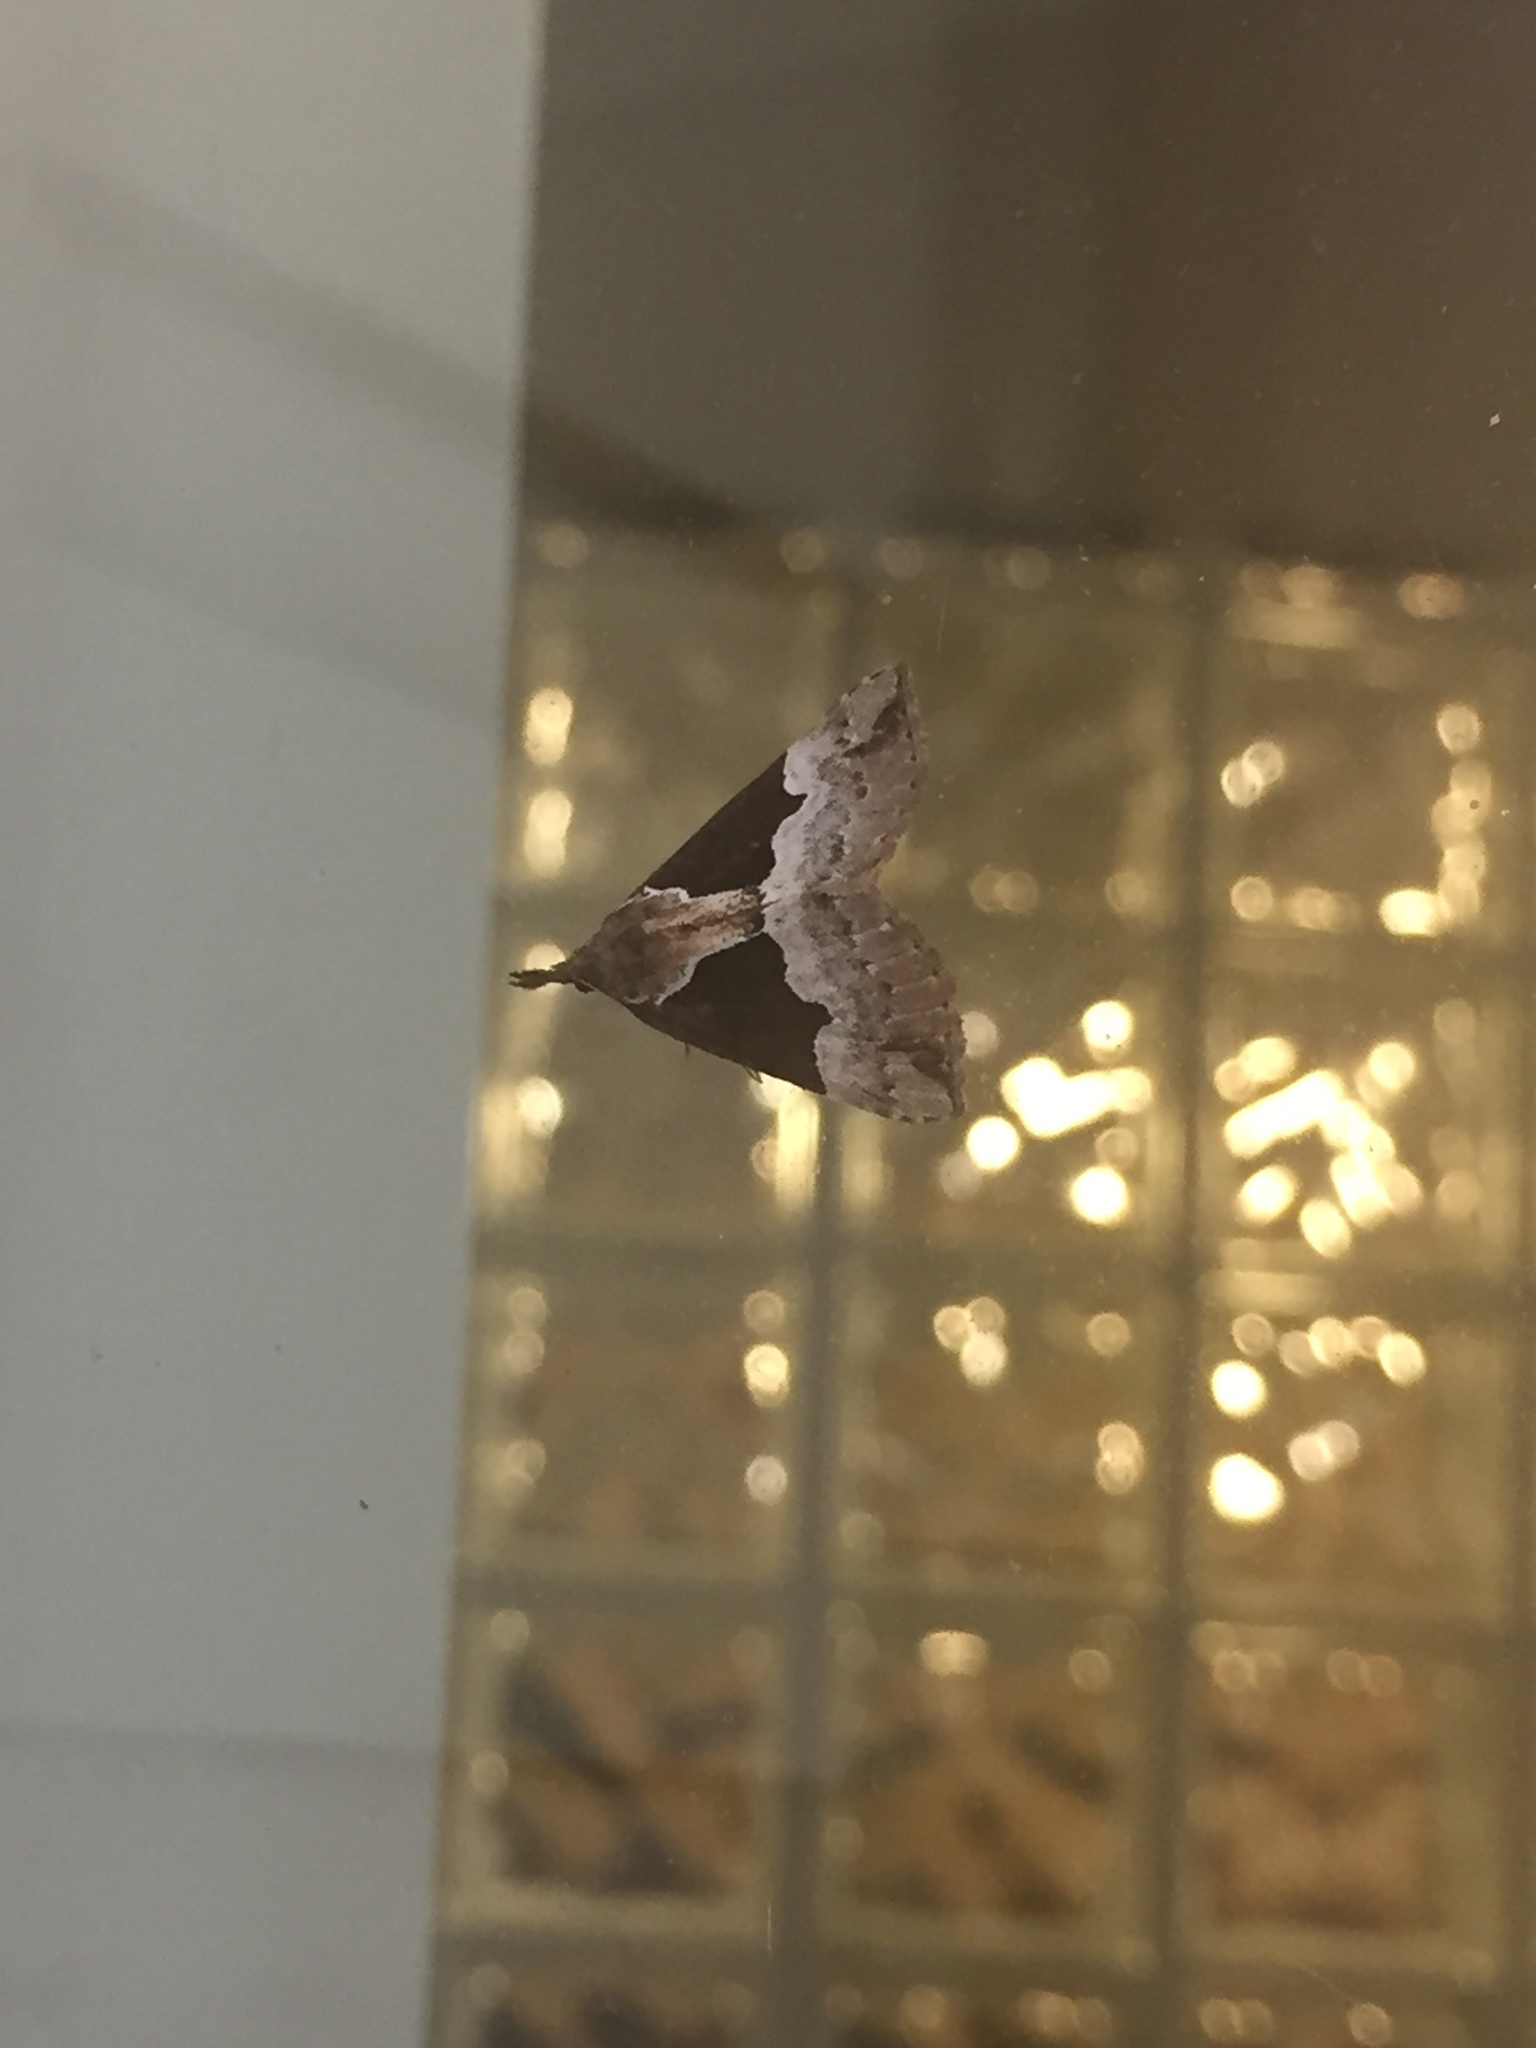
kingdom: Animalia
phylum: Arthropoda
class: Insecta
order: Lepidoptera
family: Erebidae
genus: Hypena
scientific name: Hypena bijugalis
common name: Dimorphic bomolocha moth
